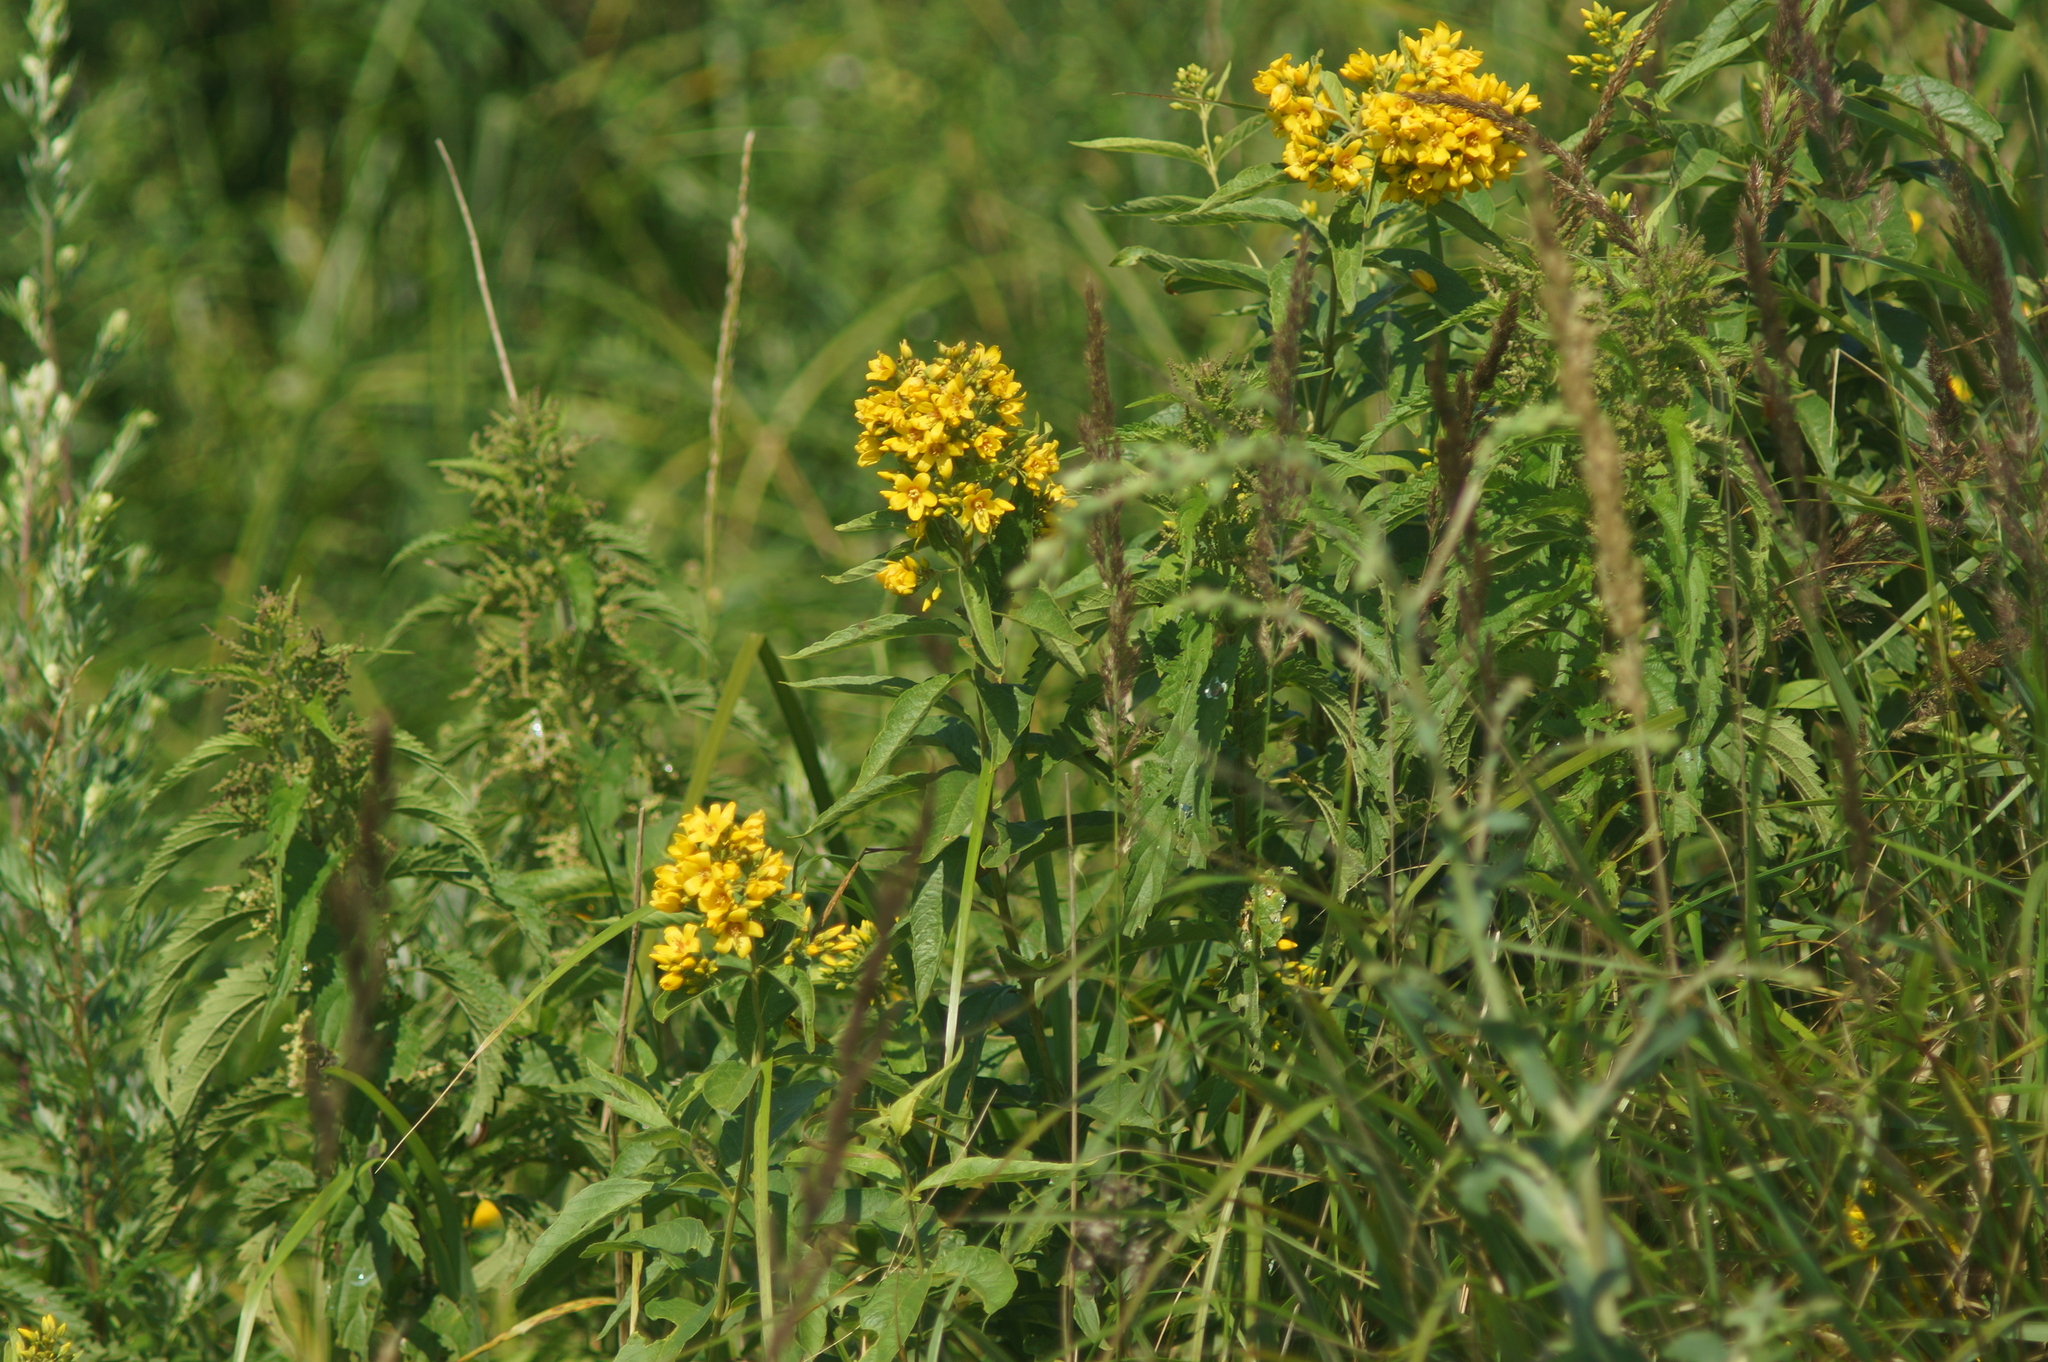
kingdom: Plantae
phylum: Tracheophyta
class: Magnoliopsida
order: Ericales
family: Primulaceae
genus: Lysimachia
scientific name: Lysimachia vulgaris
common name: Yellow loosestrife
